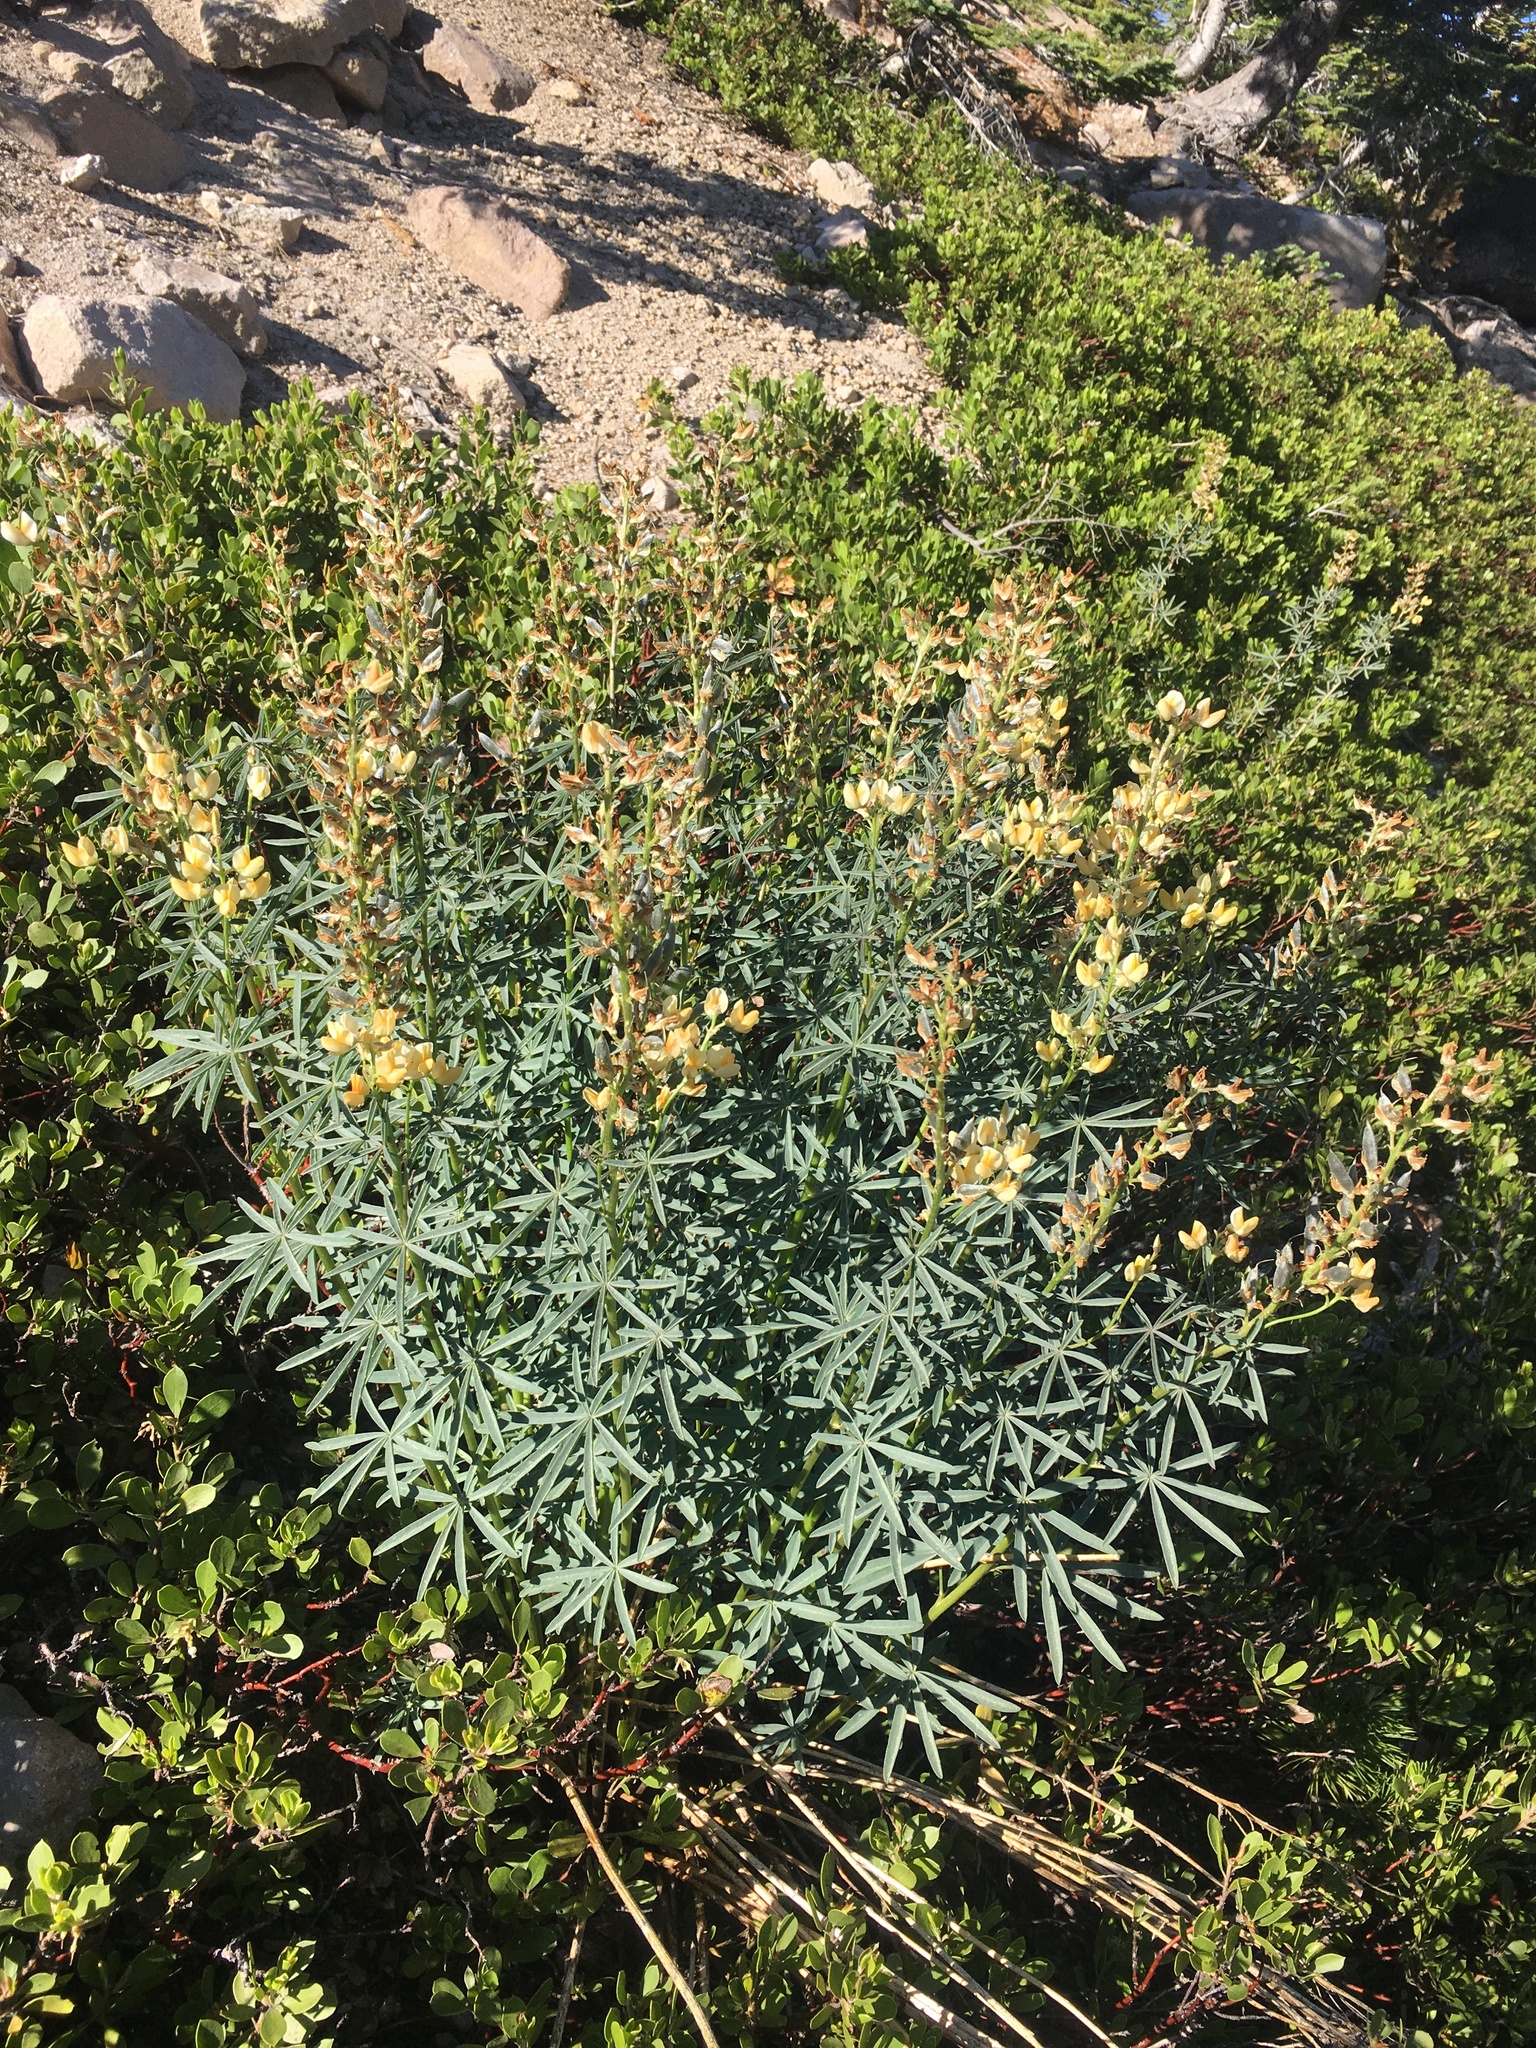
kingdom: Plantae
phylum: Tracheophyta
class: Magnoliopsida
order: Fabales
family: Fabaceae
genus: Lupinus
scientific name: Lupinus angustiflorus
